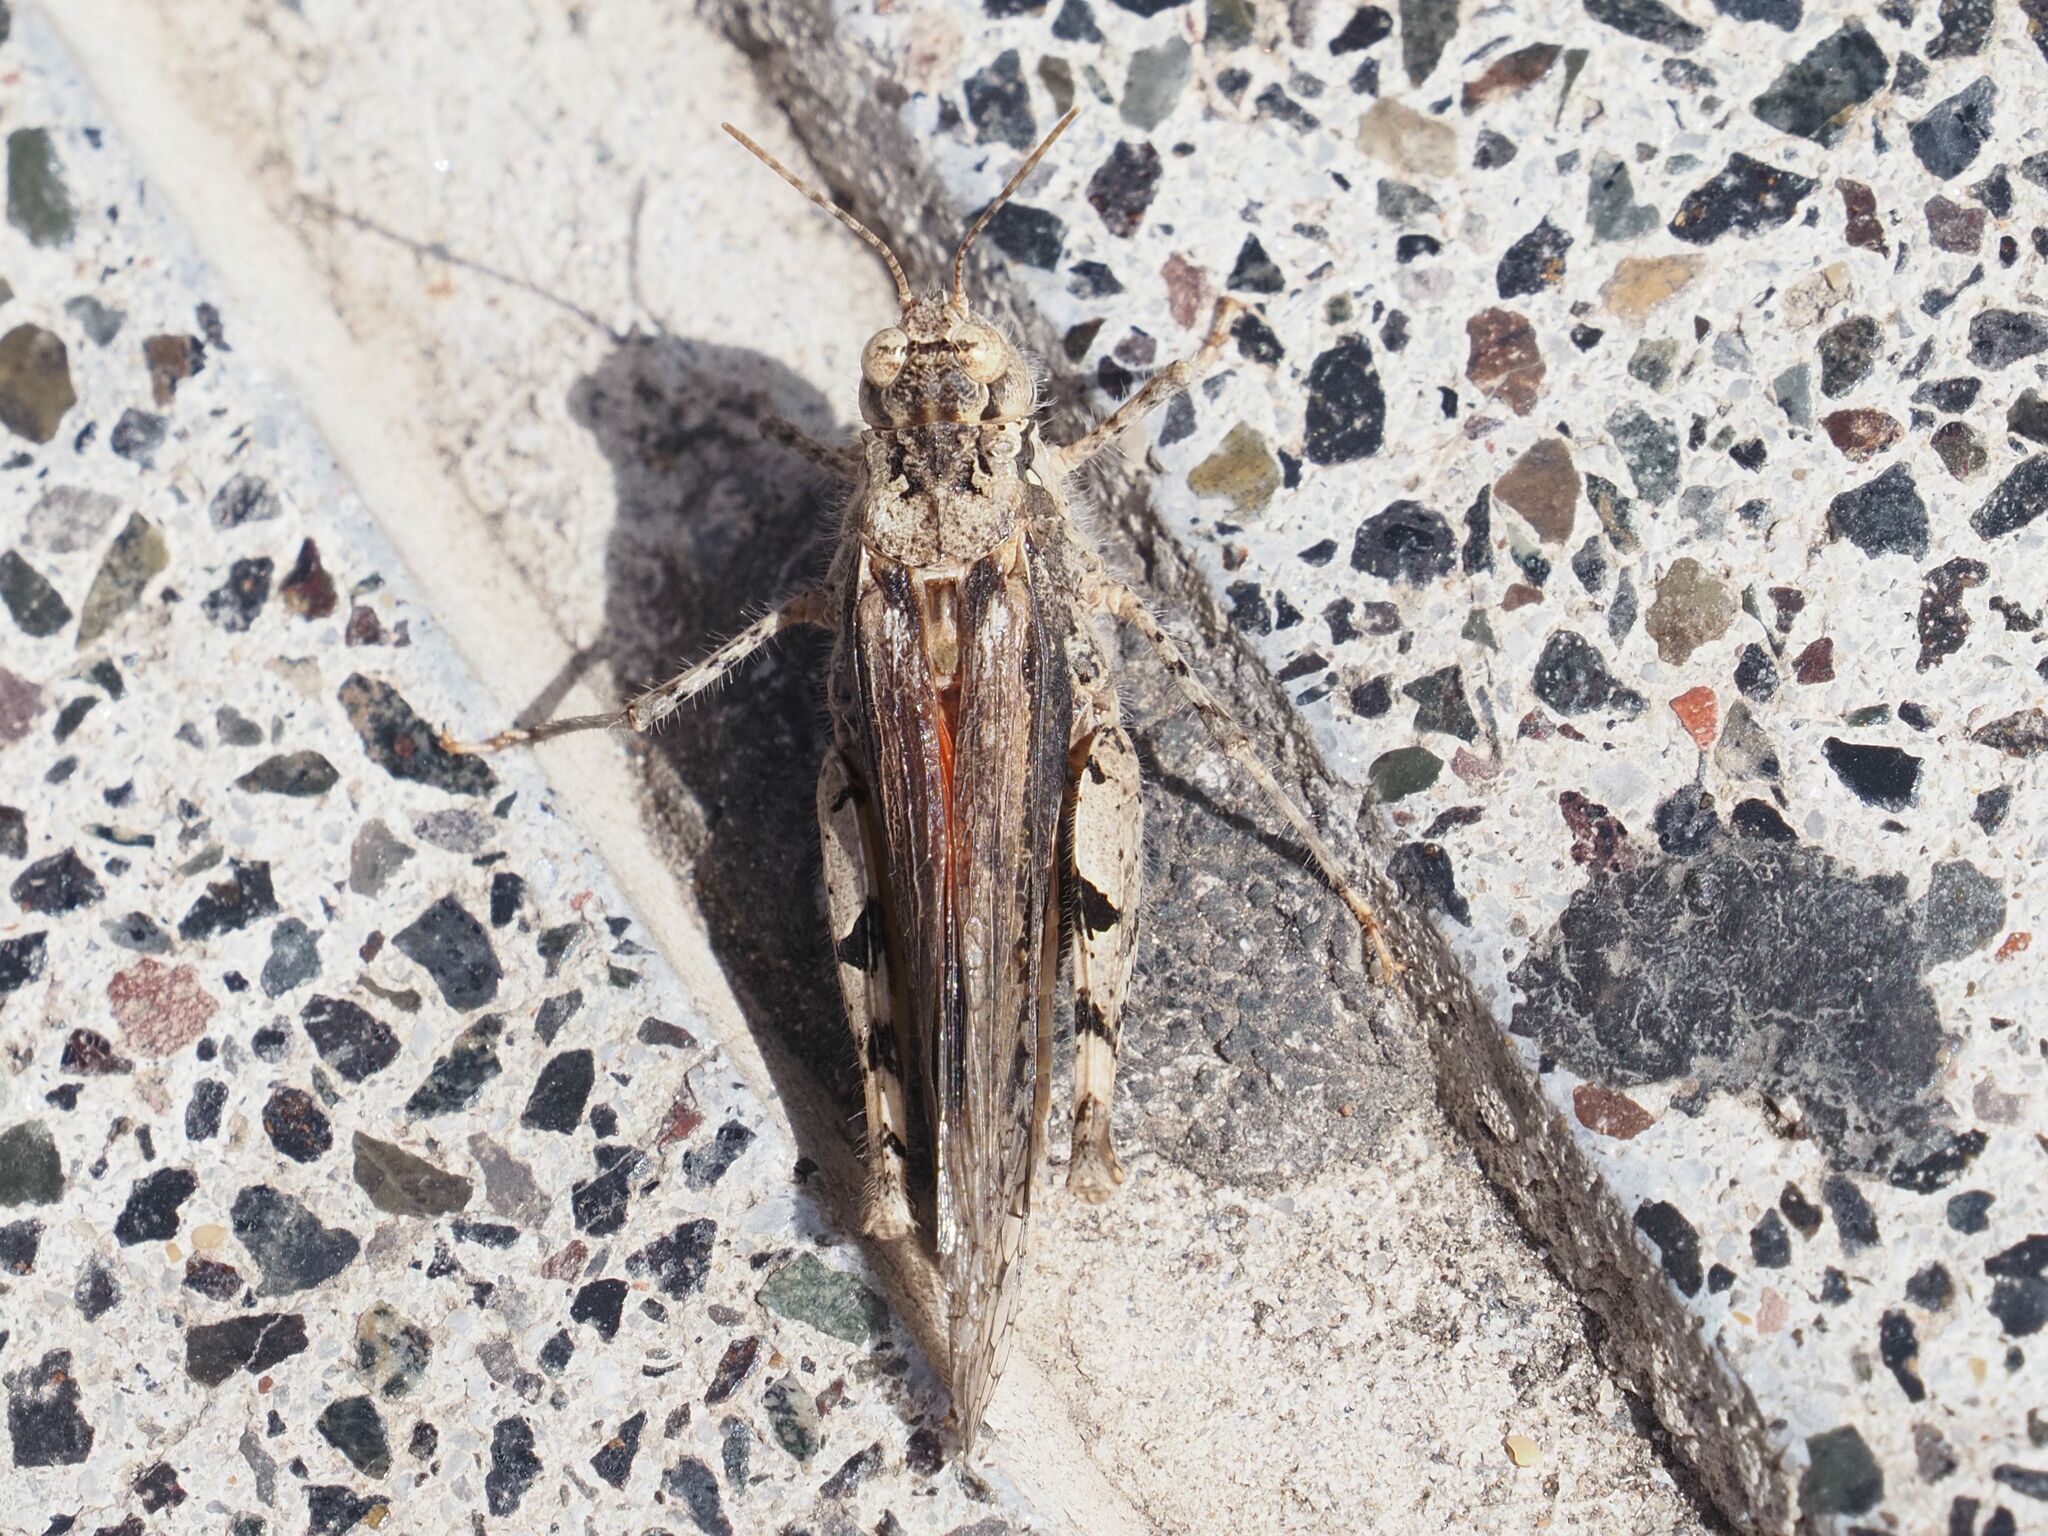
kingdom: Animalia
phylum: Arthropoda
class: Insecta
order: Orthoptera
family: Acrididae
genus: Acrotylus
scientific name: Acrotylus insubricus
